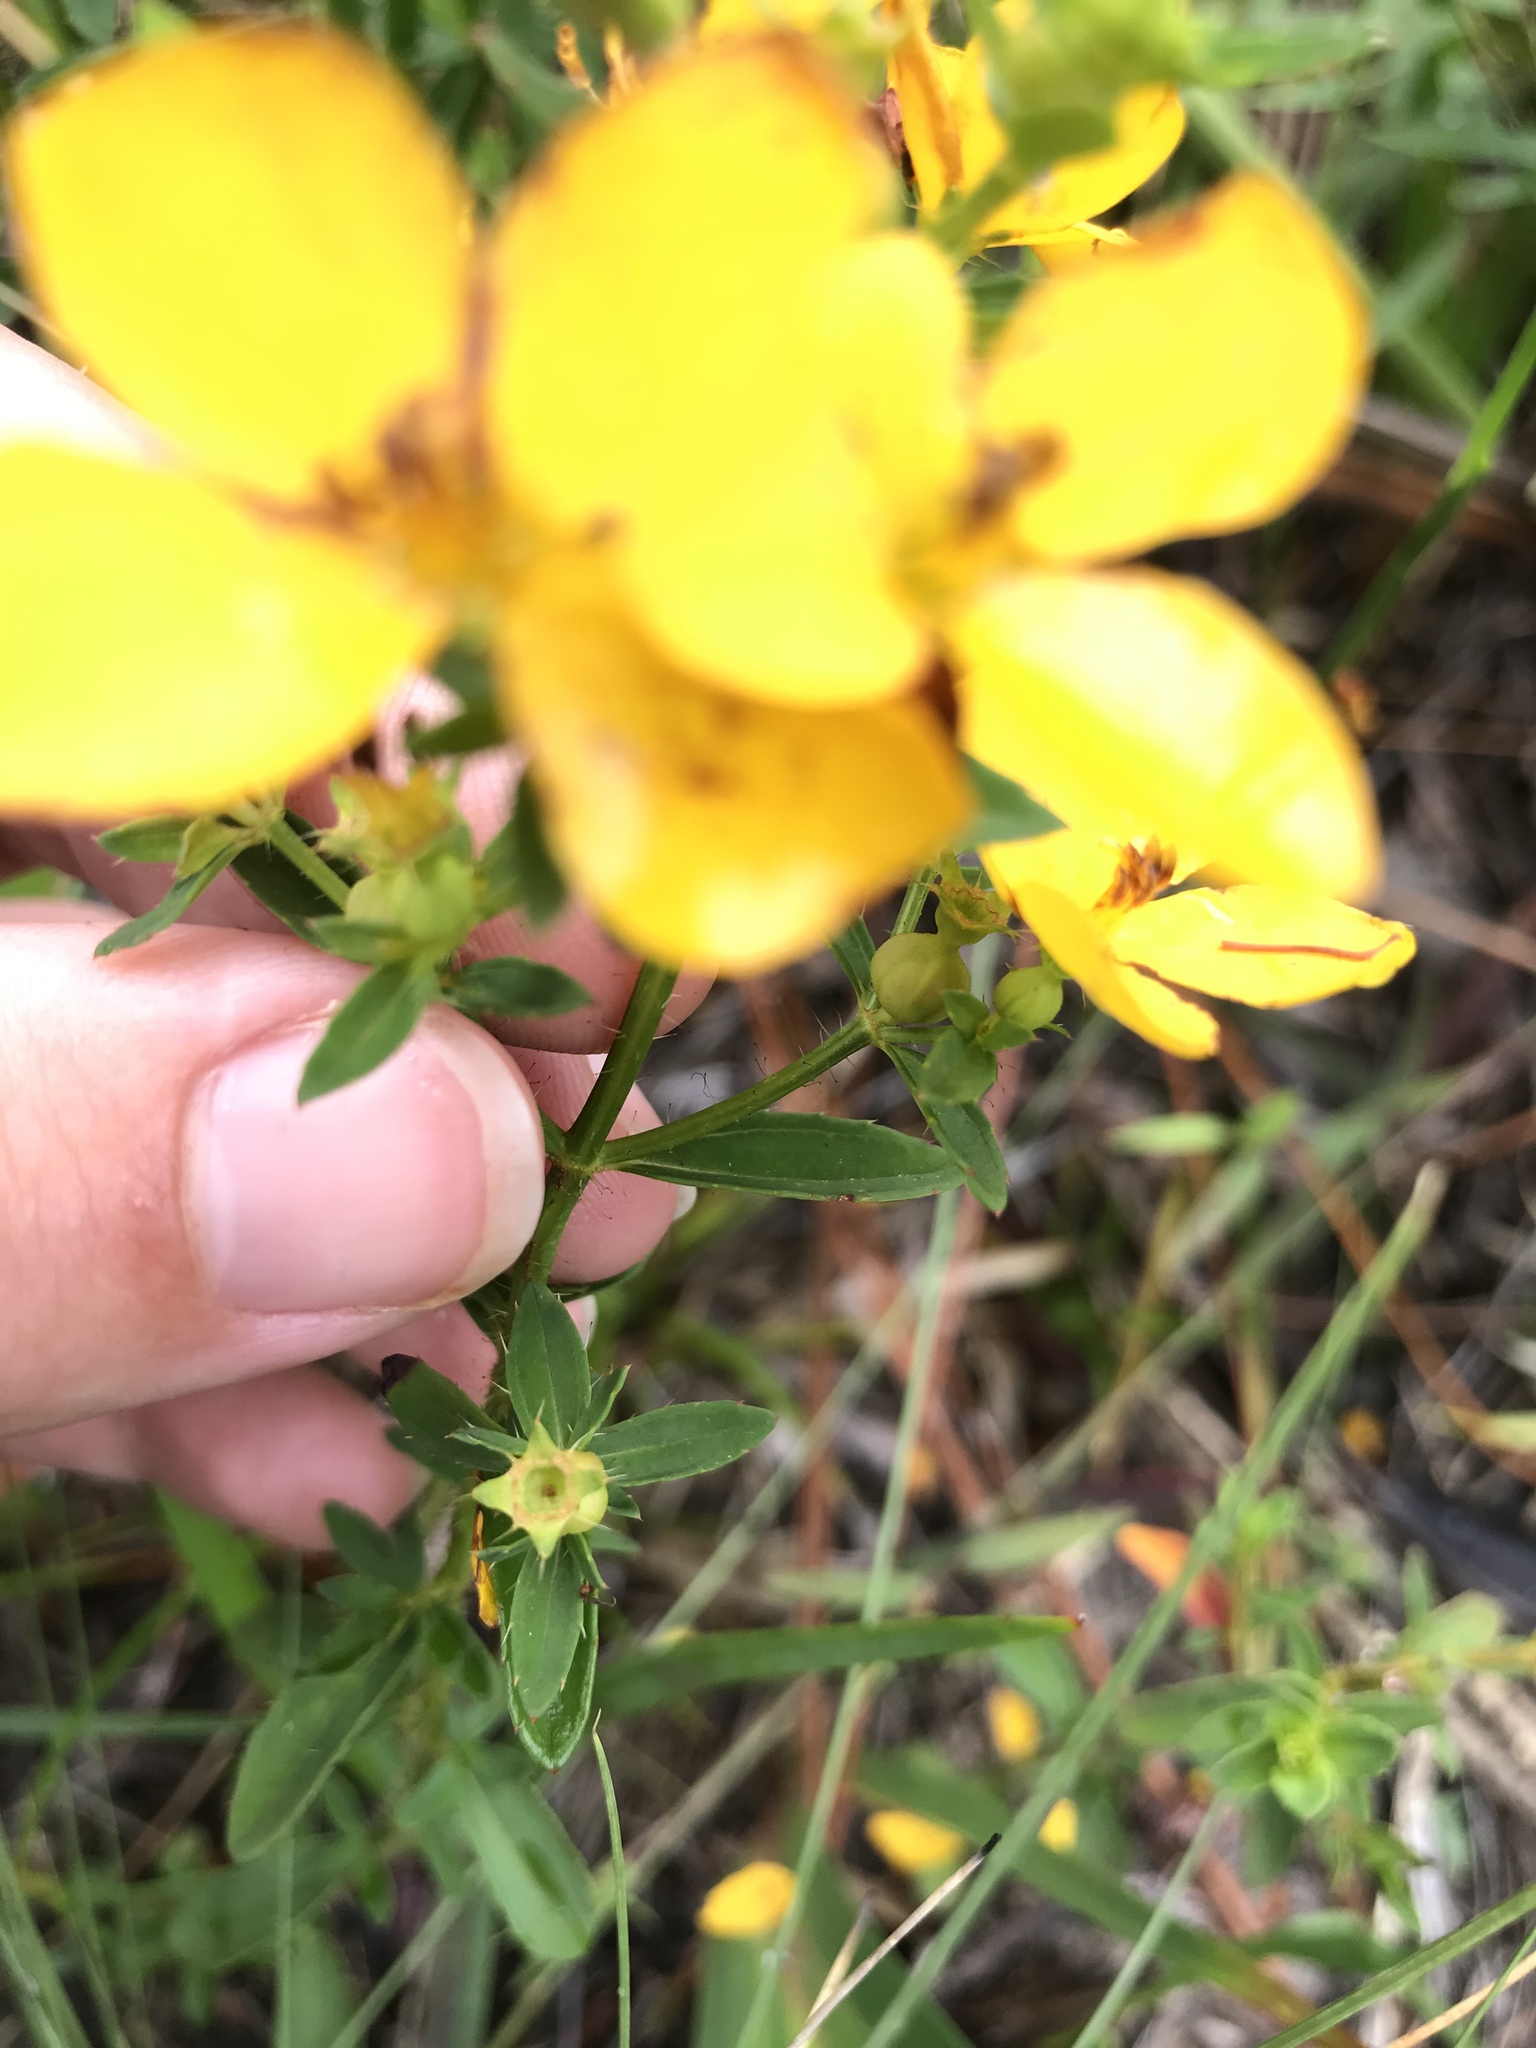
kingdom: Plantae
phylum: Tracheophyta
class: Magnoliopsida
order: Myrtales
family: Melastomataceae
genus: Rhexia
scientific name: Rhexia lutea
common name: Golden meadow-beauty
